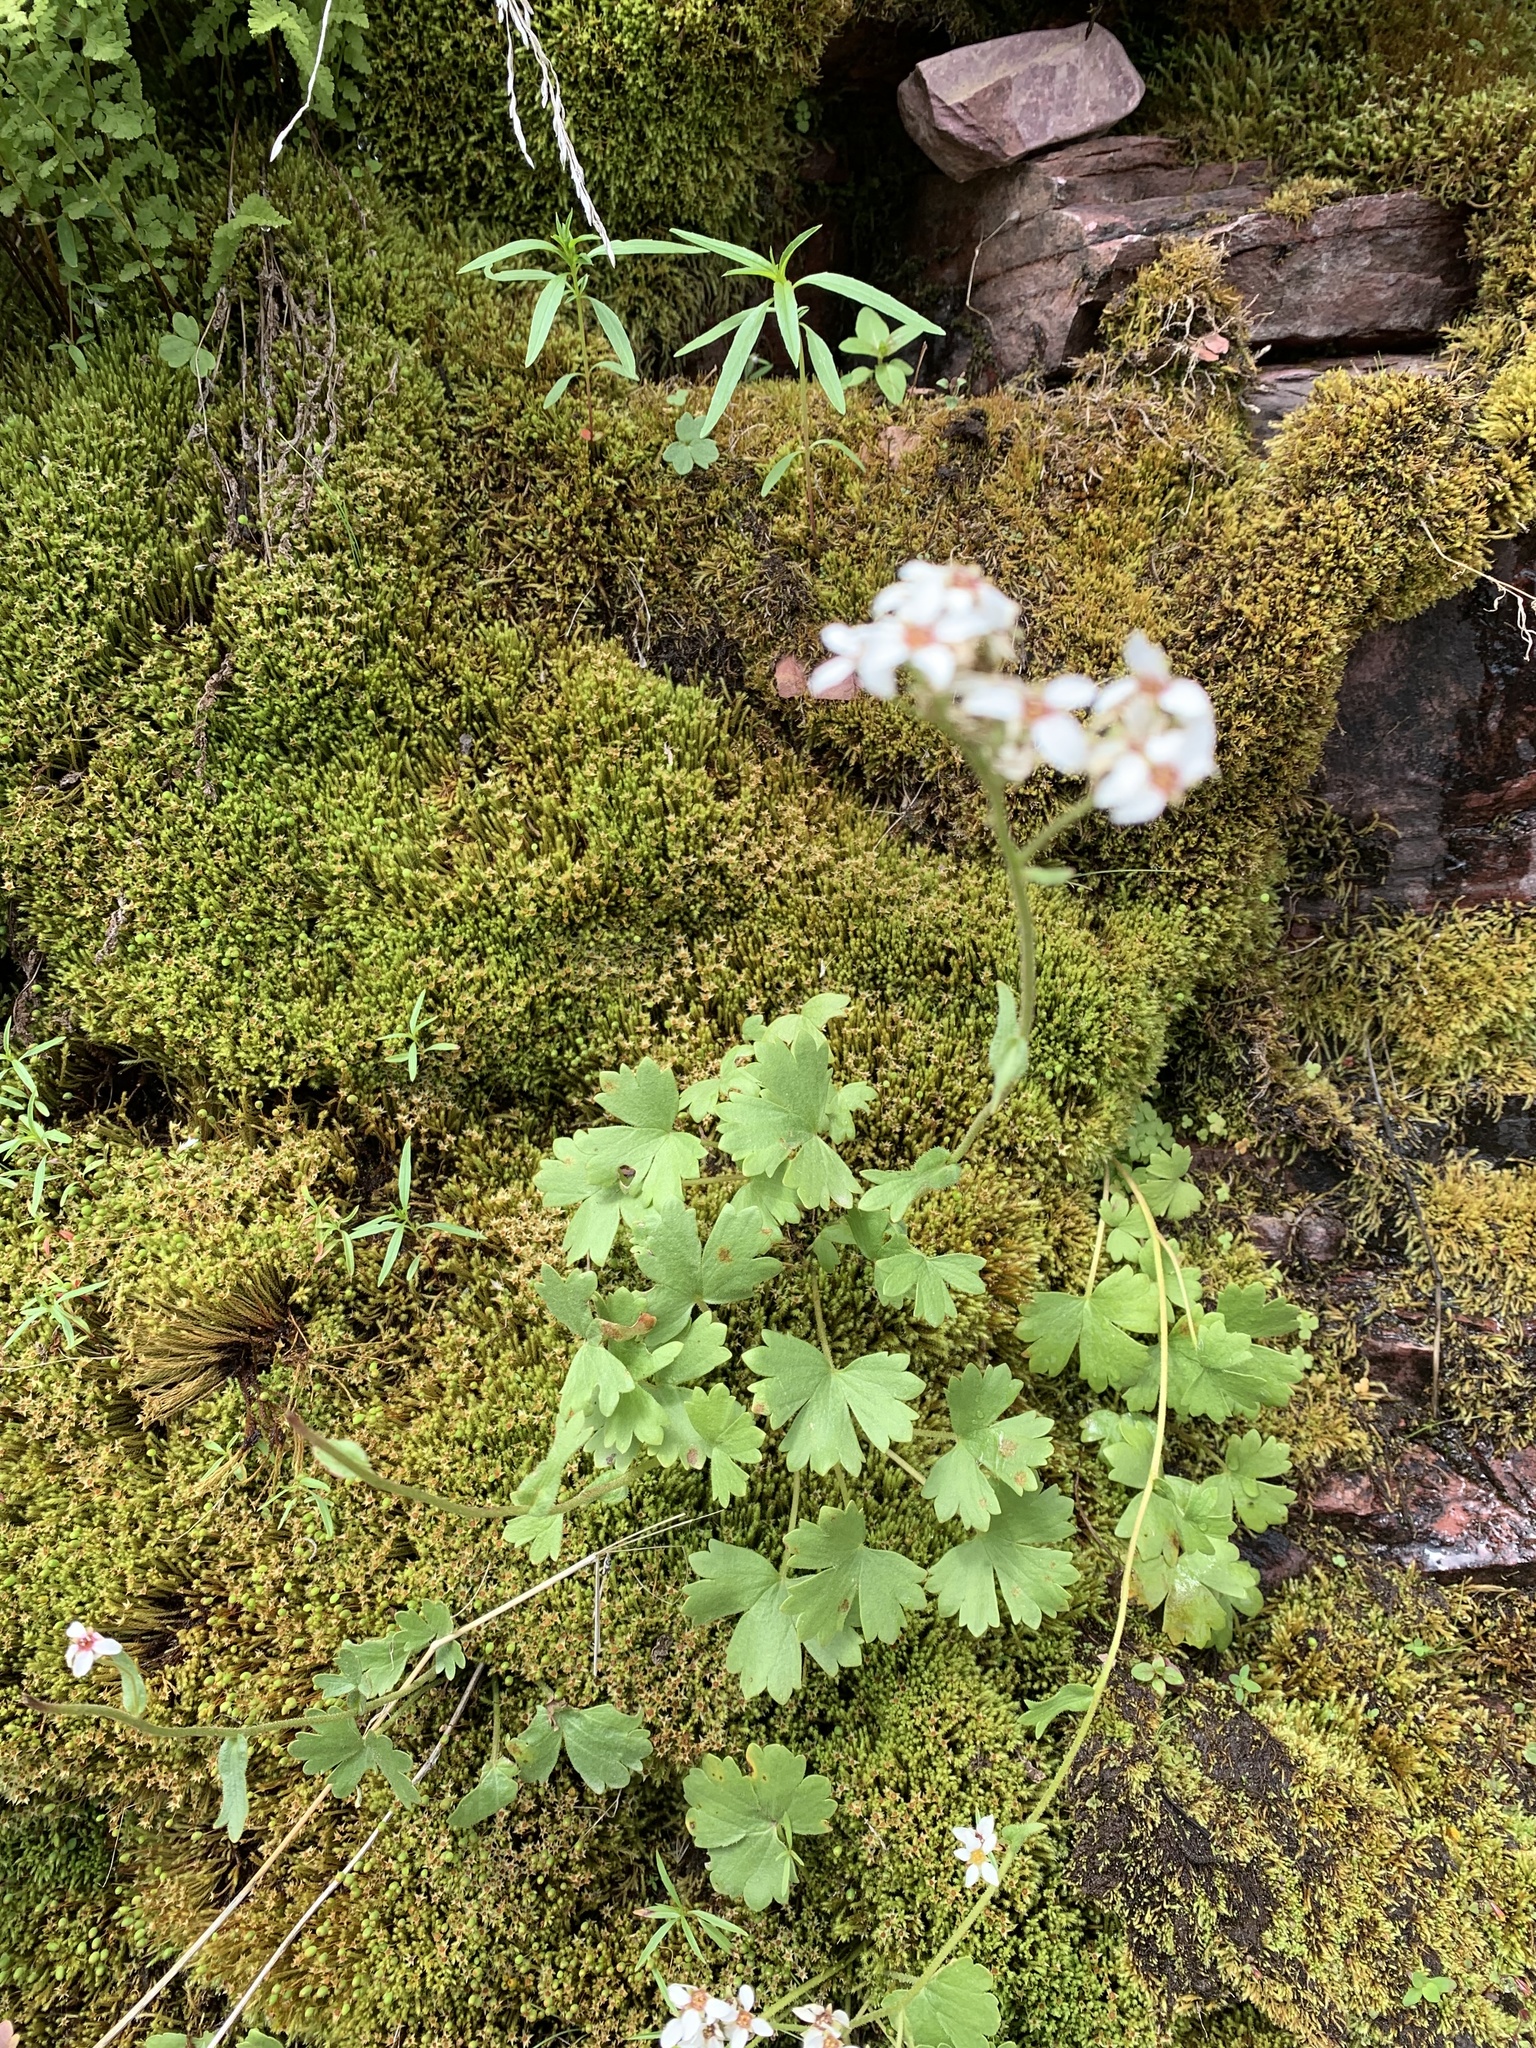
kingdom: Plantae
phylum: Tracheophyta
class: Magnoliopsida
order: Saxifragales
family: Saxifragaceae
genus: Hemieva
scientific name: Hemieva ranunculifolia
